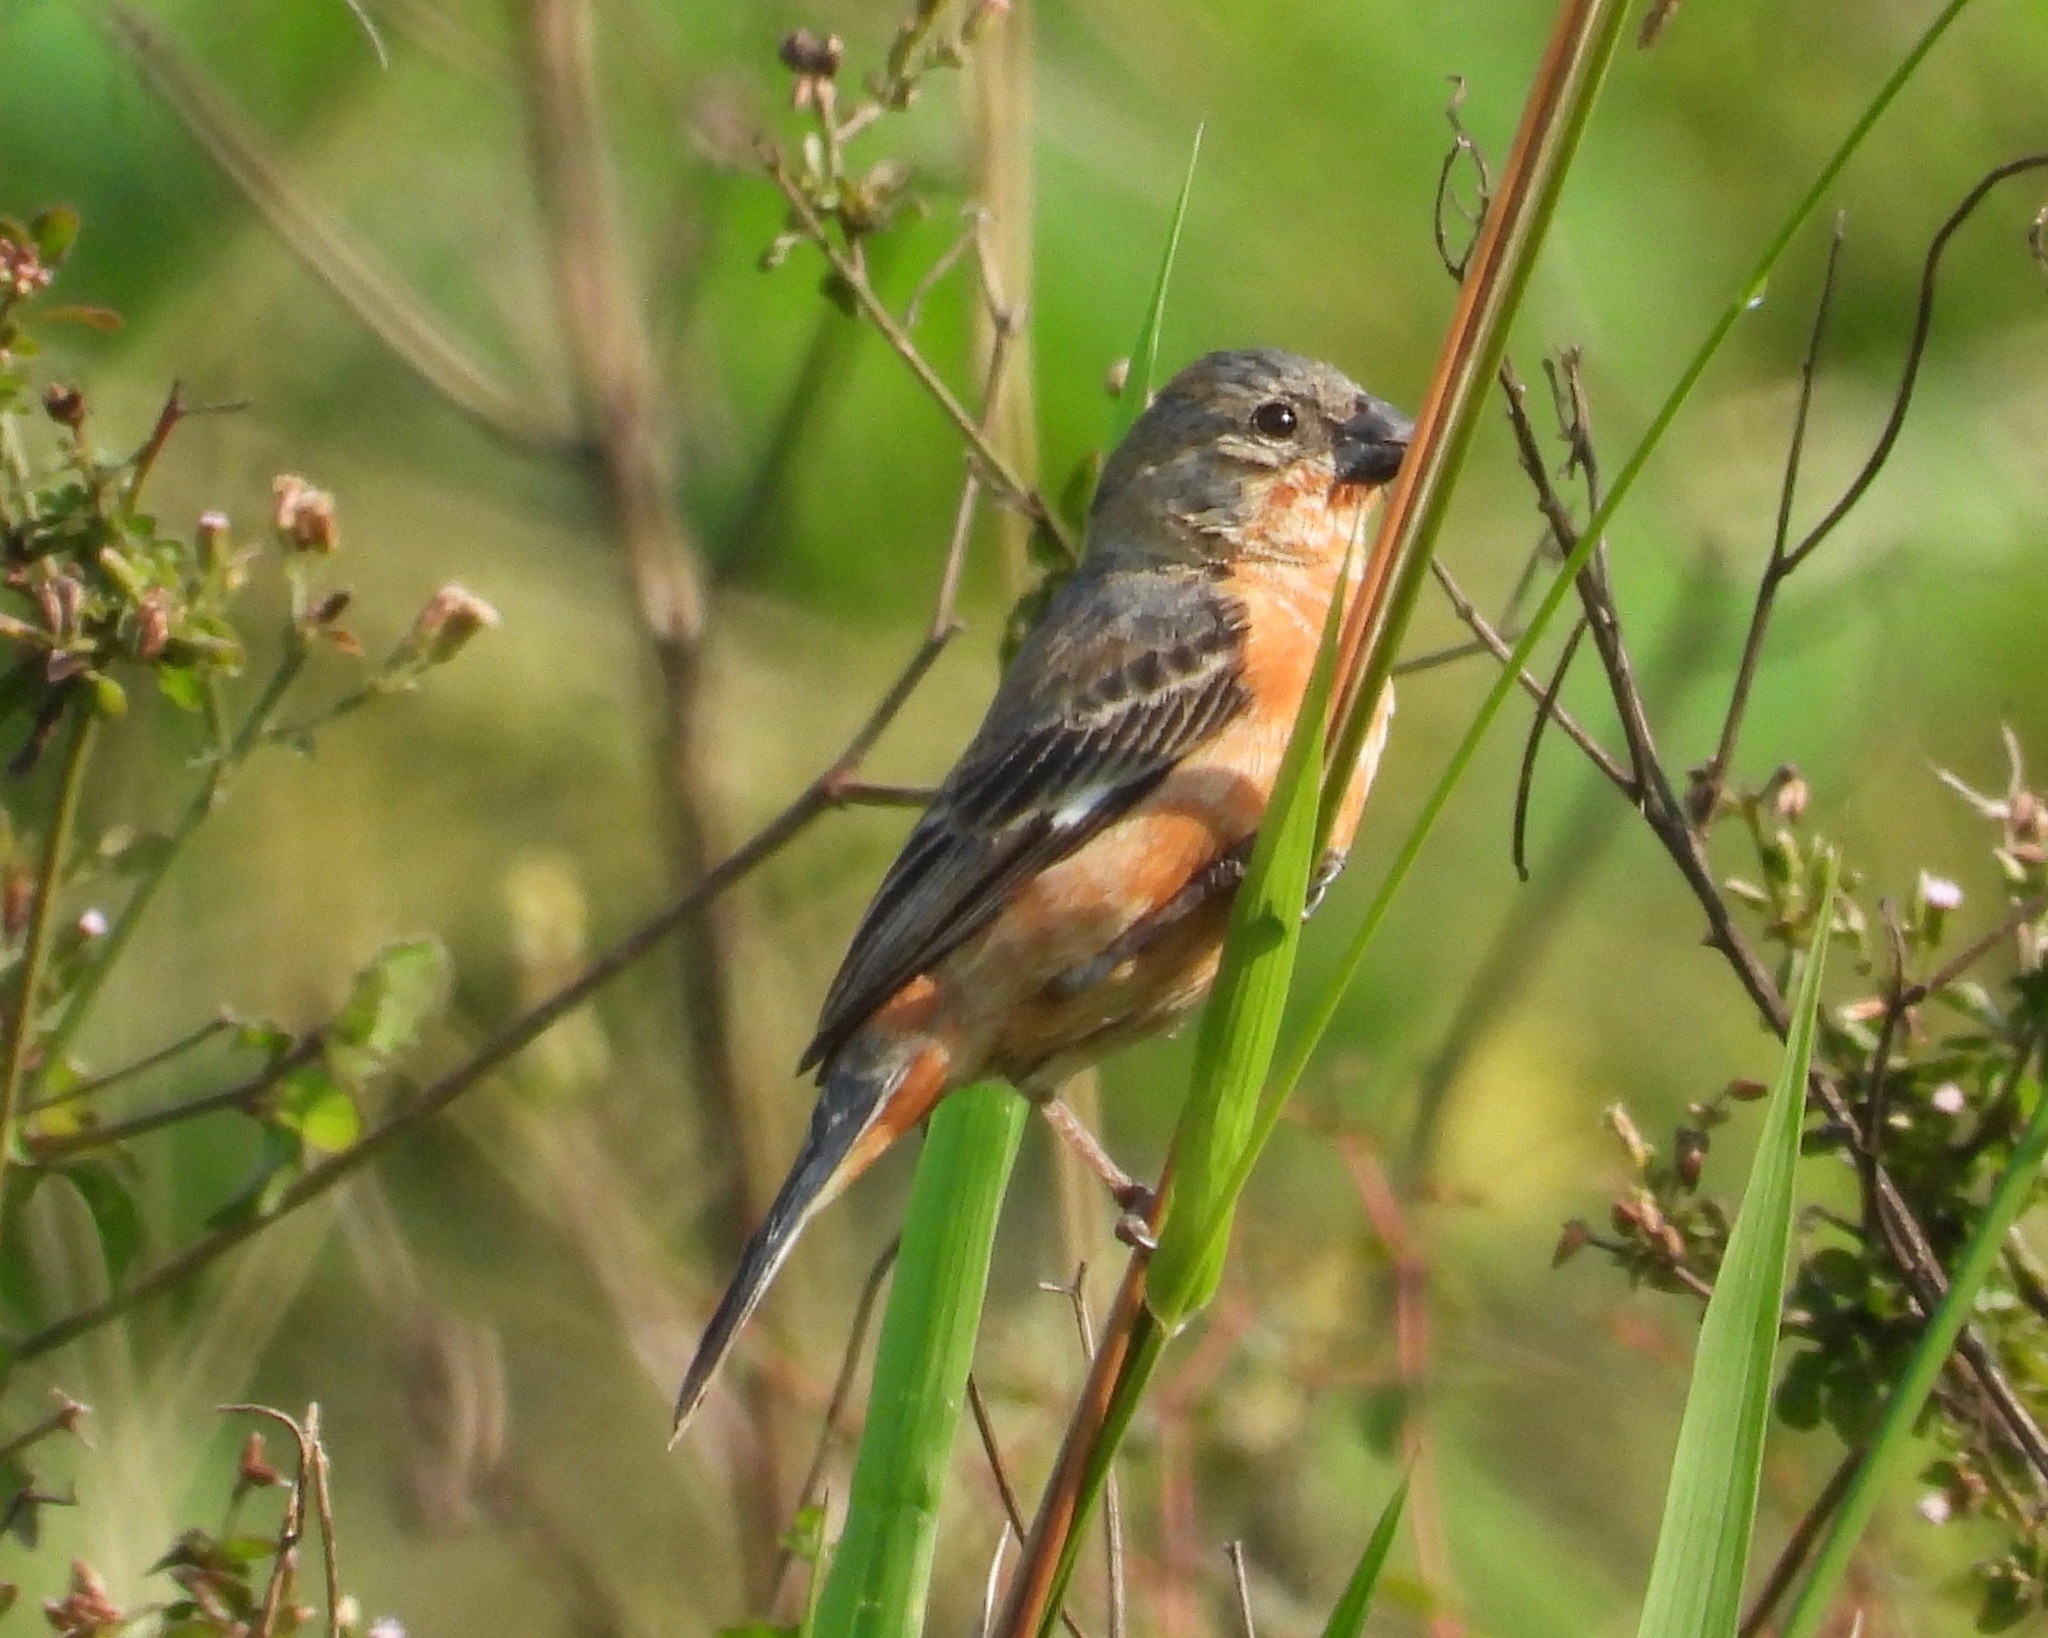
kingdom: Animalia
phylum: Chordata
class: Aves
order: Passeriformes
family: Thraupidae
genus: Sporophila
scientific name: Sporophila minuta
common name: Ruddy-breasted seedeater
